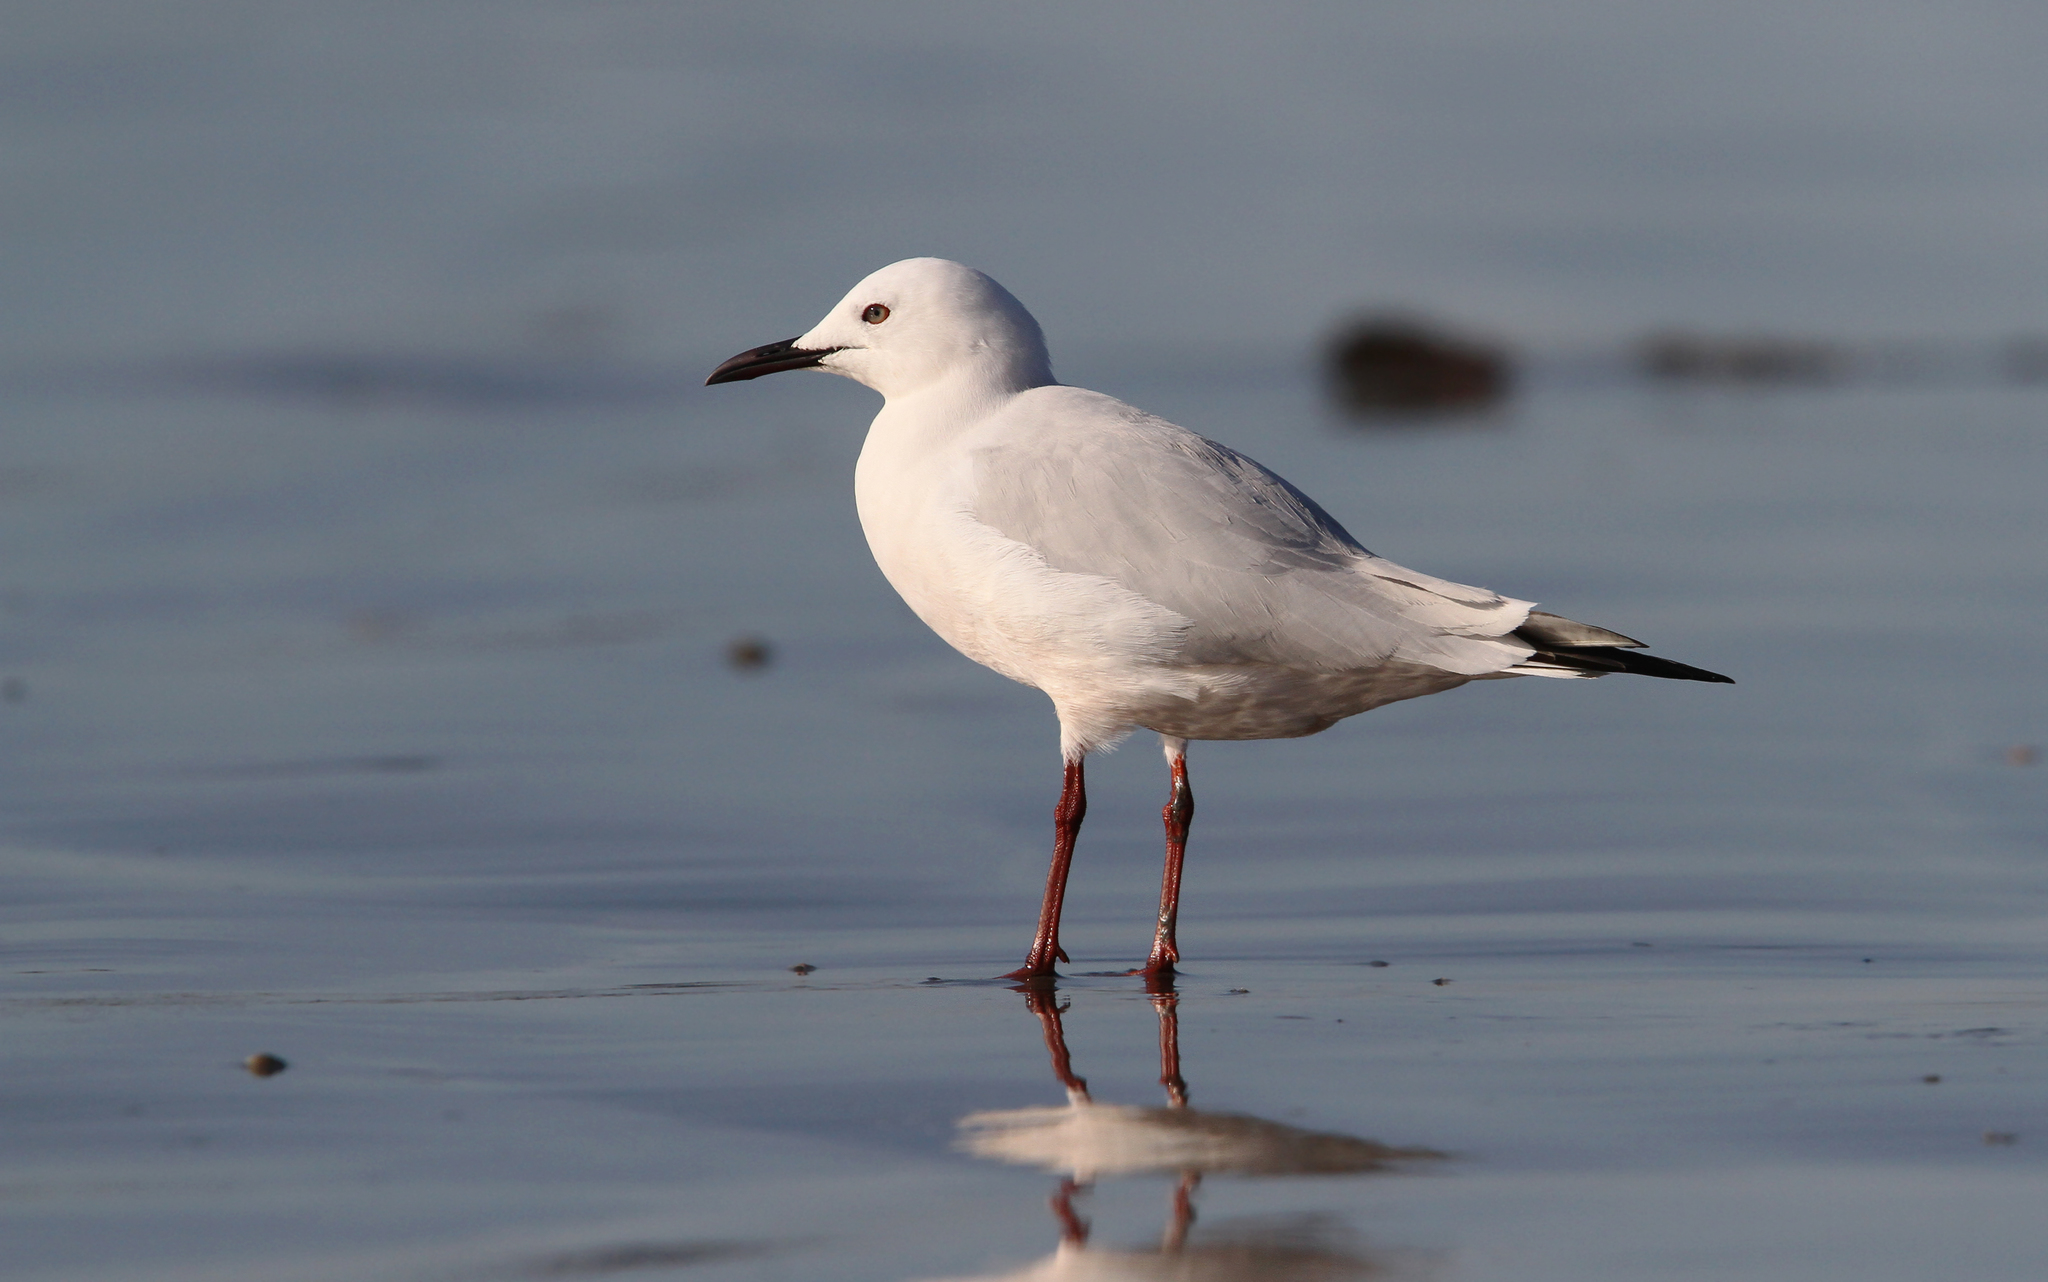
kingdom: Animalia
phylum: Chordata
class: Aves
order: Charadriiformes
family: Laridae
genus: Chroicocephalus
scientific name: Chroicocephalus genei
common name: Slender-billed gull
